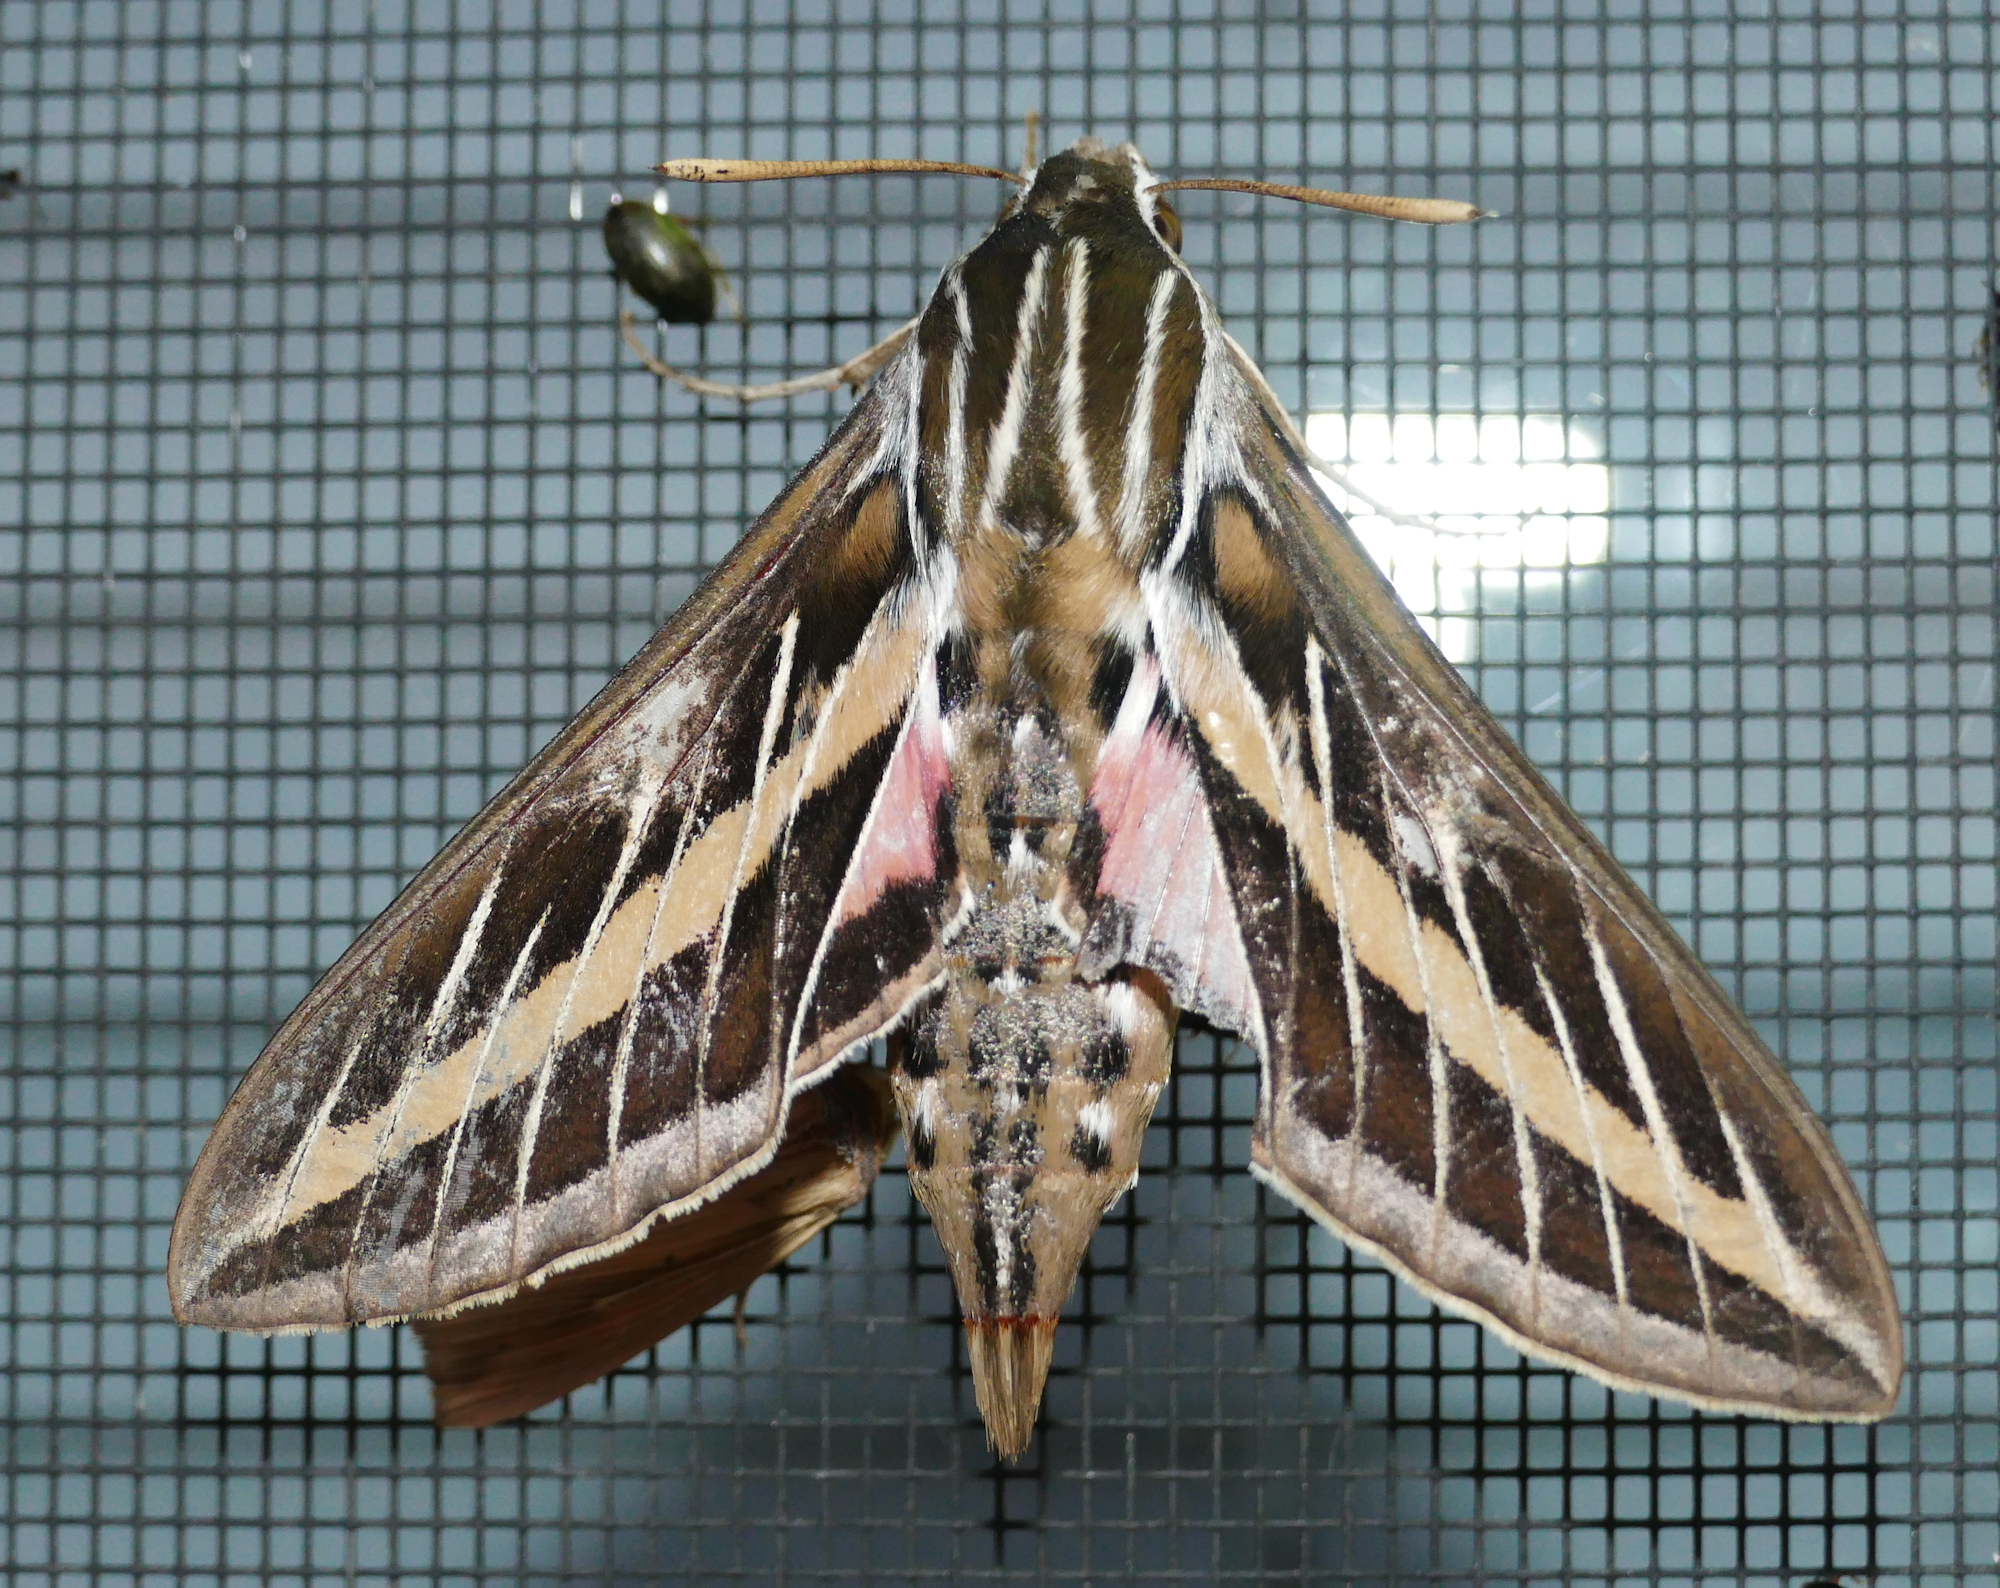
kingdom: Animalia
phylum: Arthropoda
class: Insecta
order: Lepidoptera
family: Sphingidae
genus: Hyles
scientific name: Hyles lineata
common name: White-lined sphinx
